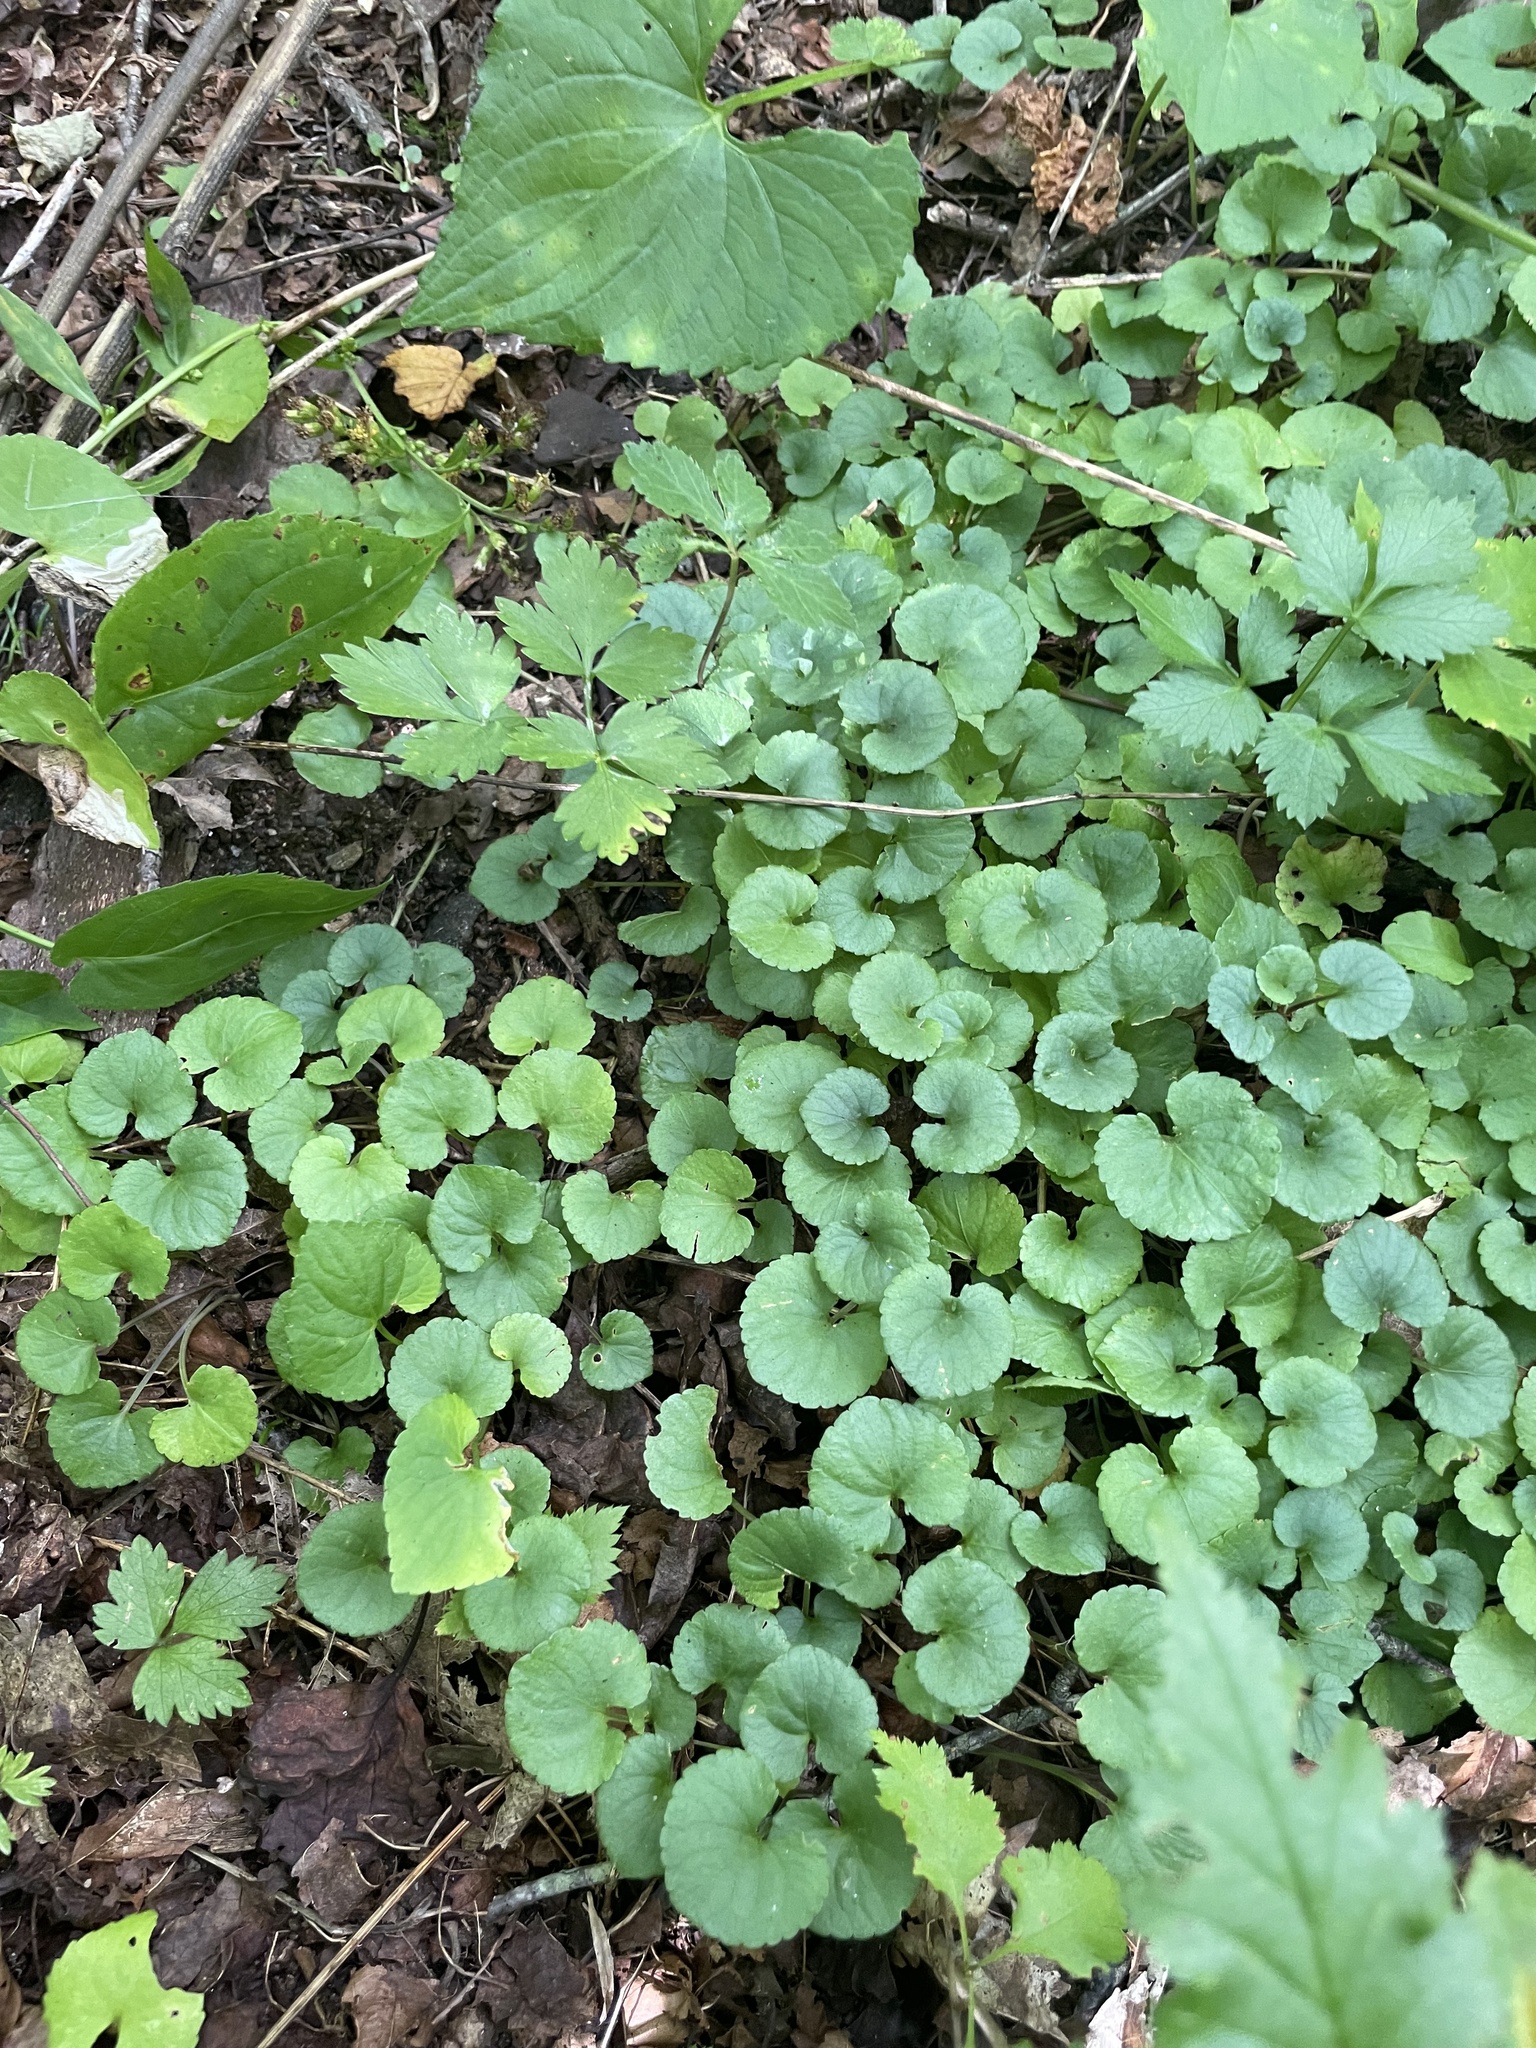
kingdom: Plantae
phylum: Tracheophyta
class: Magnoliopsida
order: Malpighiales
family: Violaceae
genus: Viola
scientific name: Viola appalachiensis
